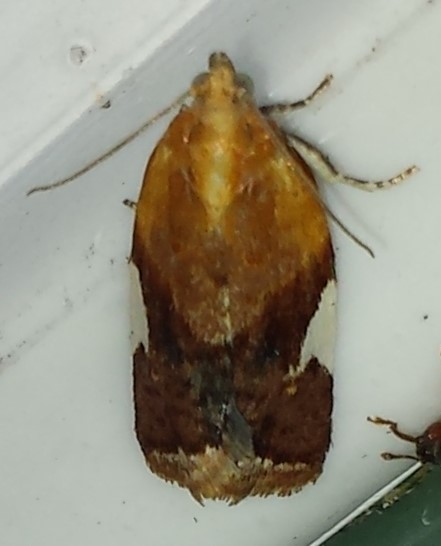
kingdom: Animalia
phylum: Arthropoda
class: Insecta
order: Lepidoptera
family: Tortricidae
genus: Clepsis
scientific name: Clepsis persicana
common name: White triangle tortrix
